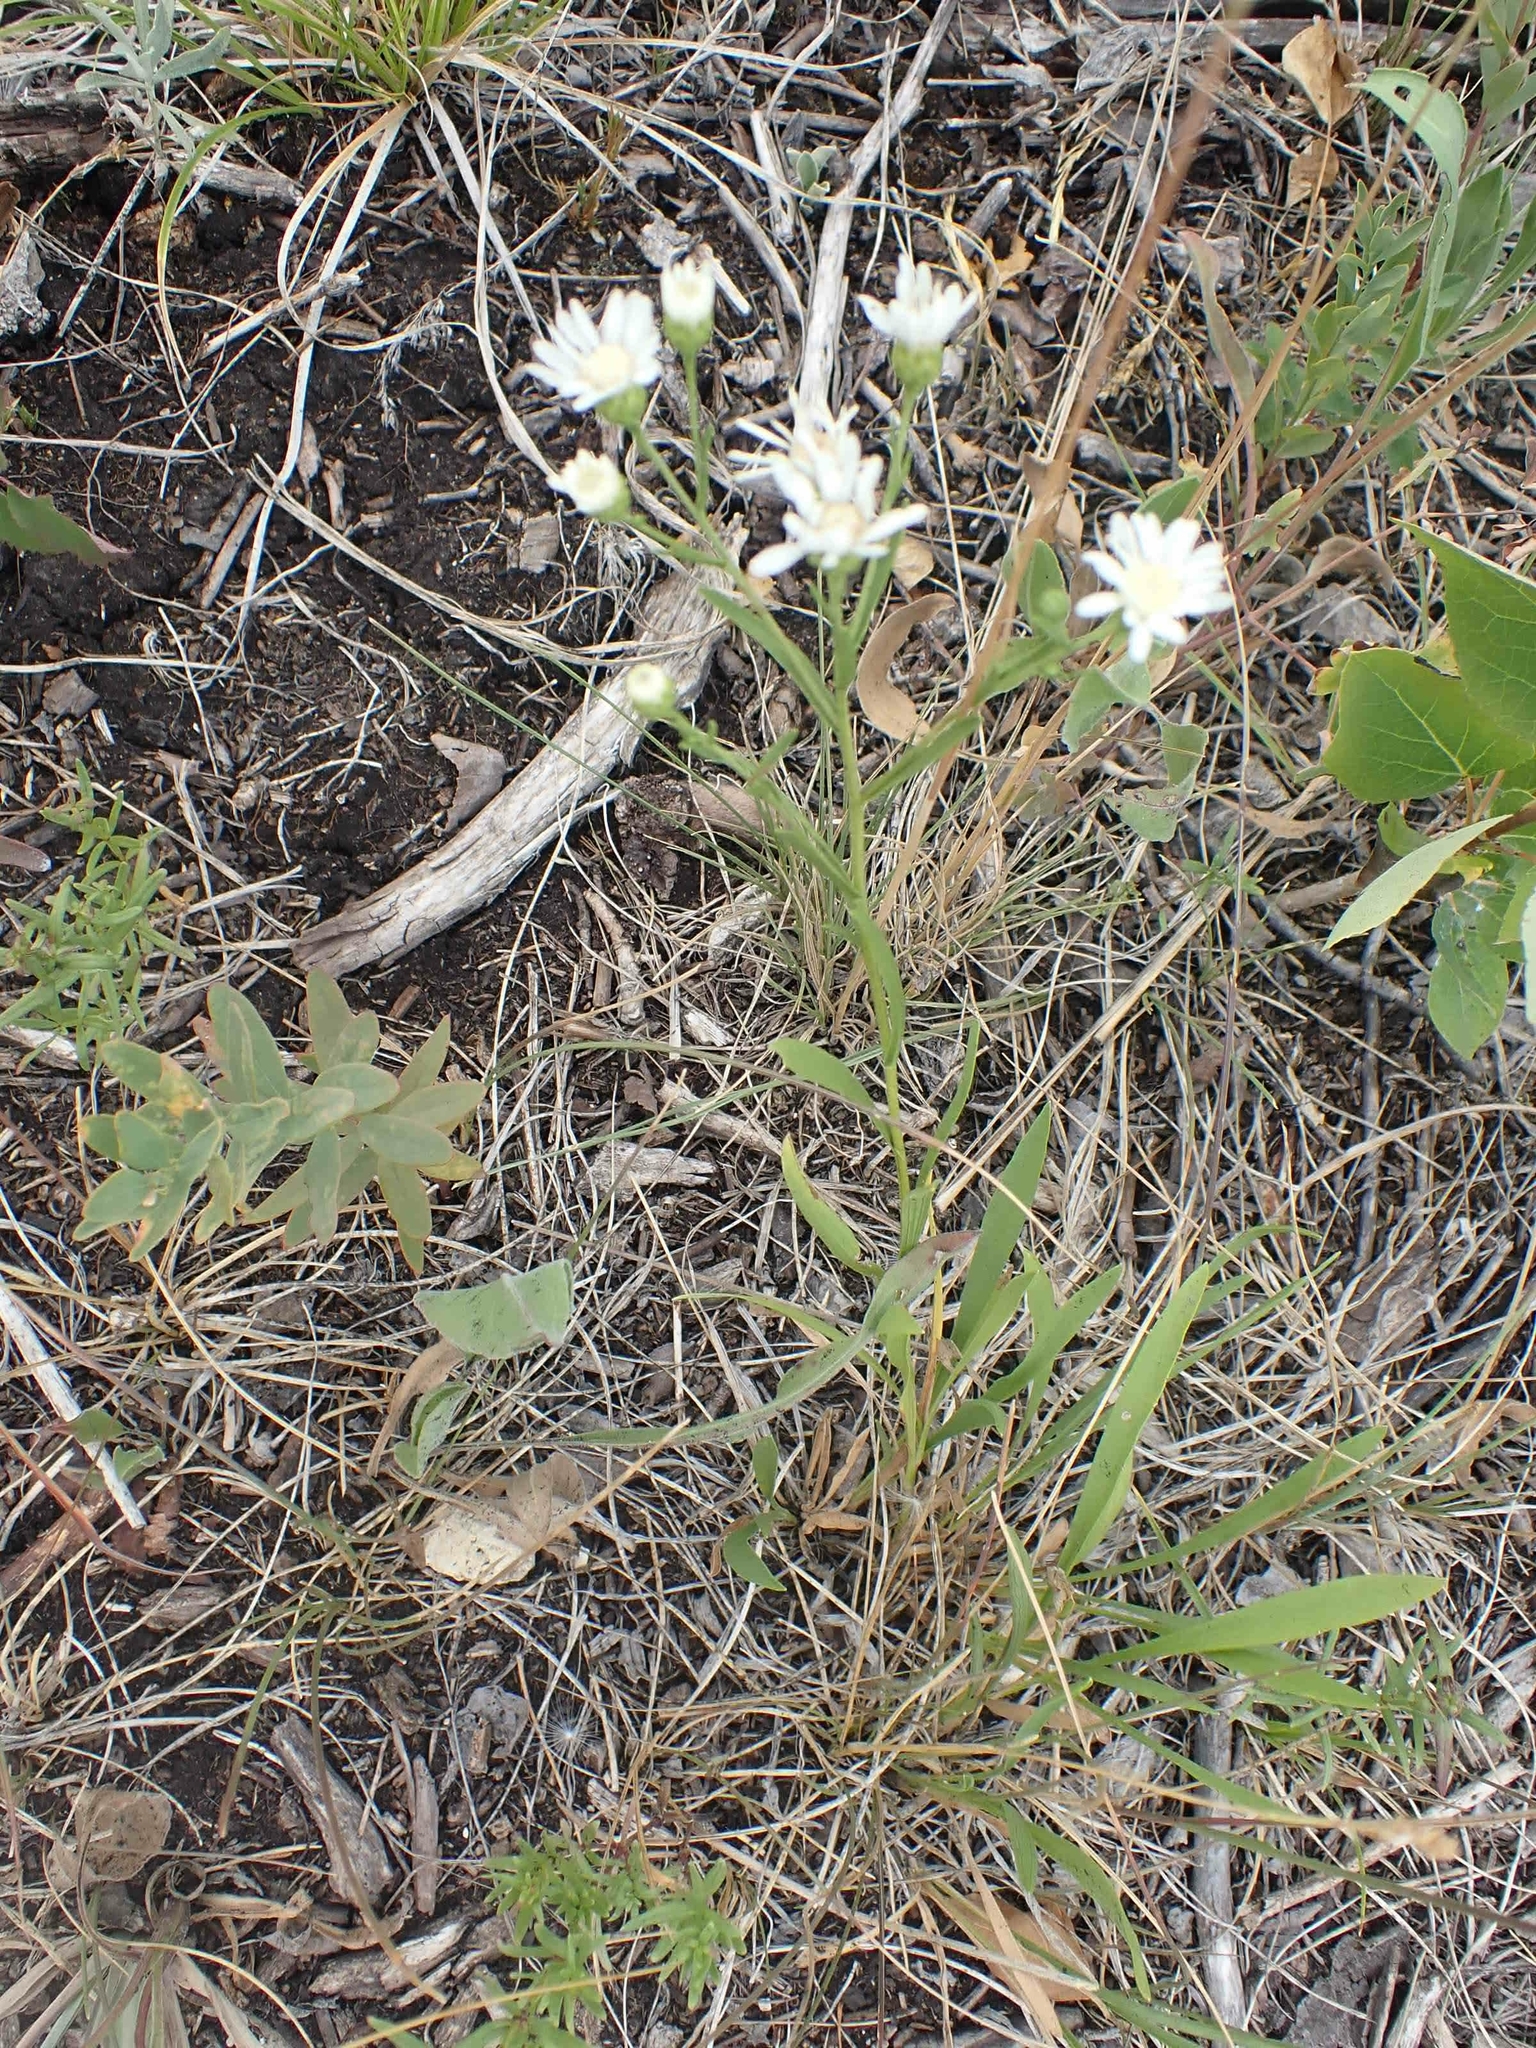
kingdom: Plantae
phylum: Tracheophyta
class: Magnoliopsida
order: Asterales
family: Asteraceae
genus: Solidago
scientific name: Solidago ptarmicoides
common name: White flat-top goldenrod
